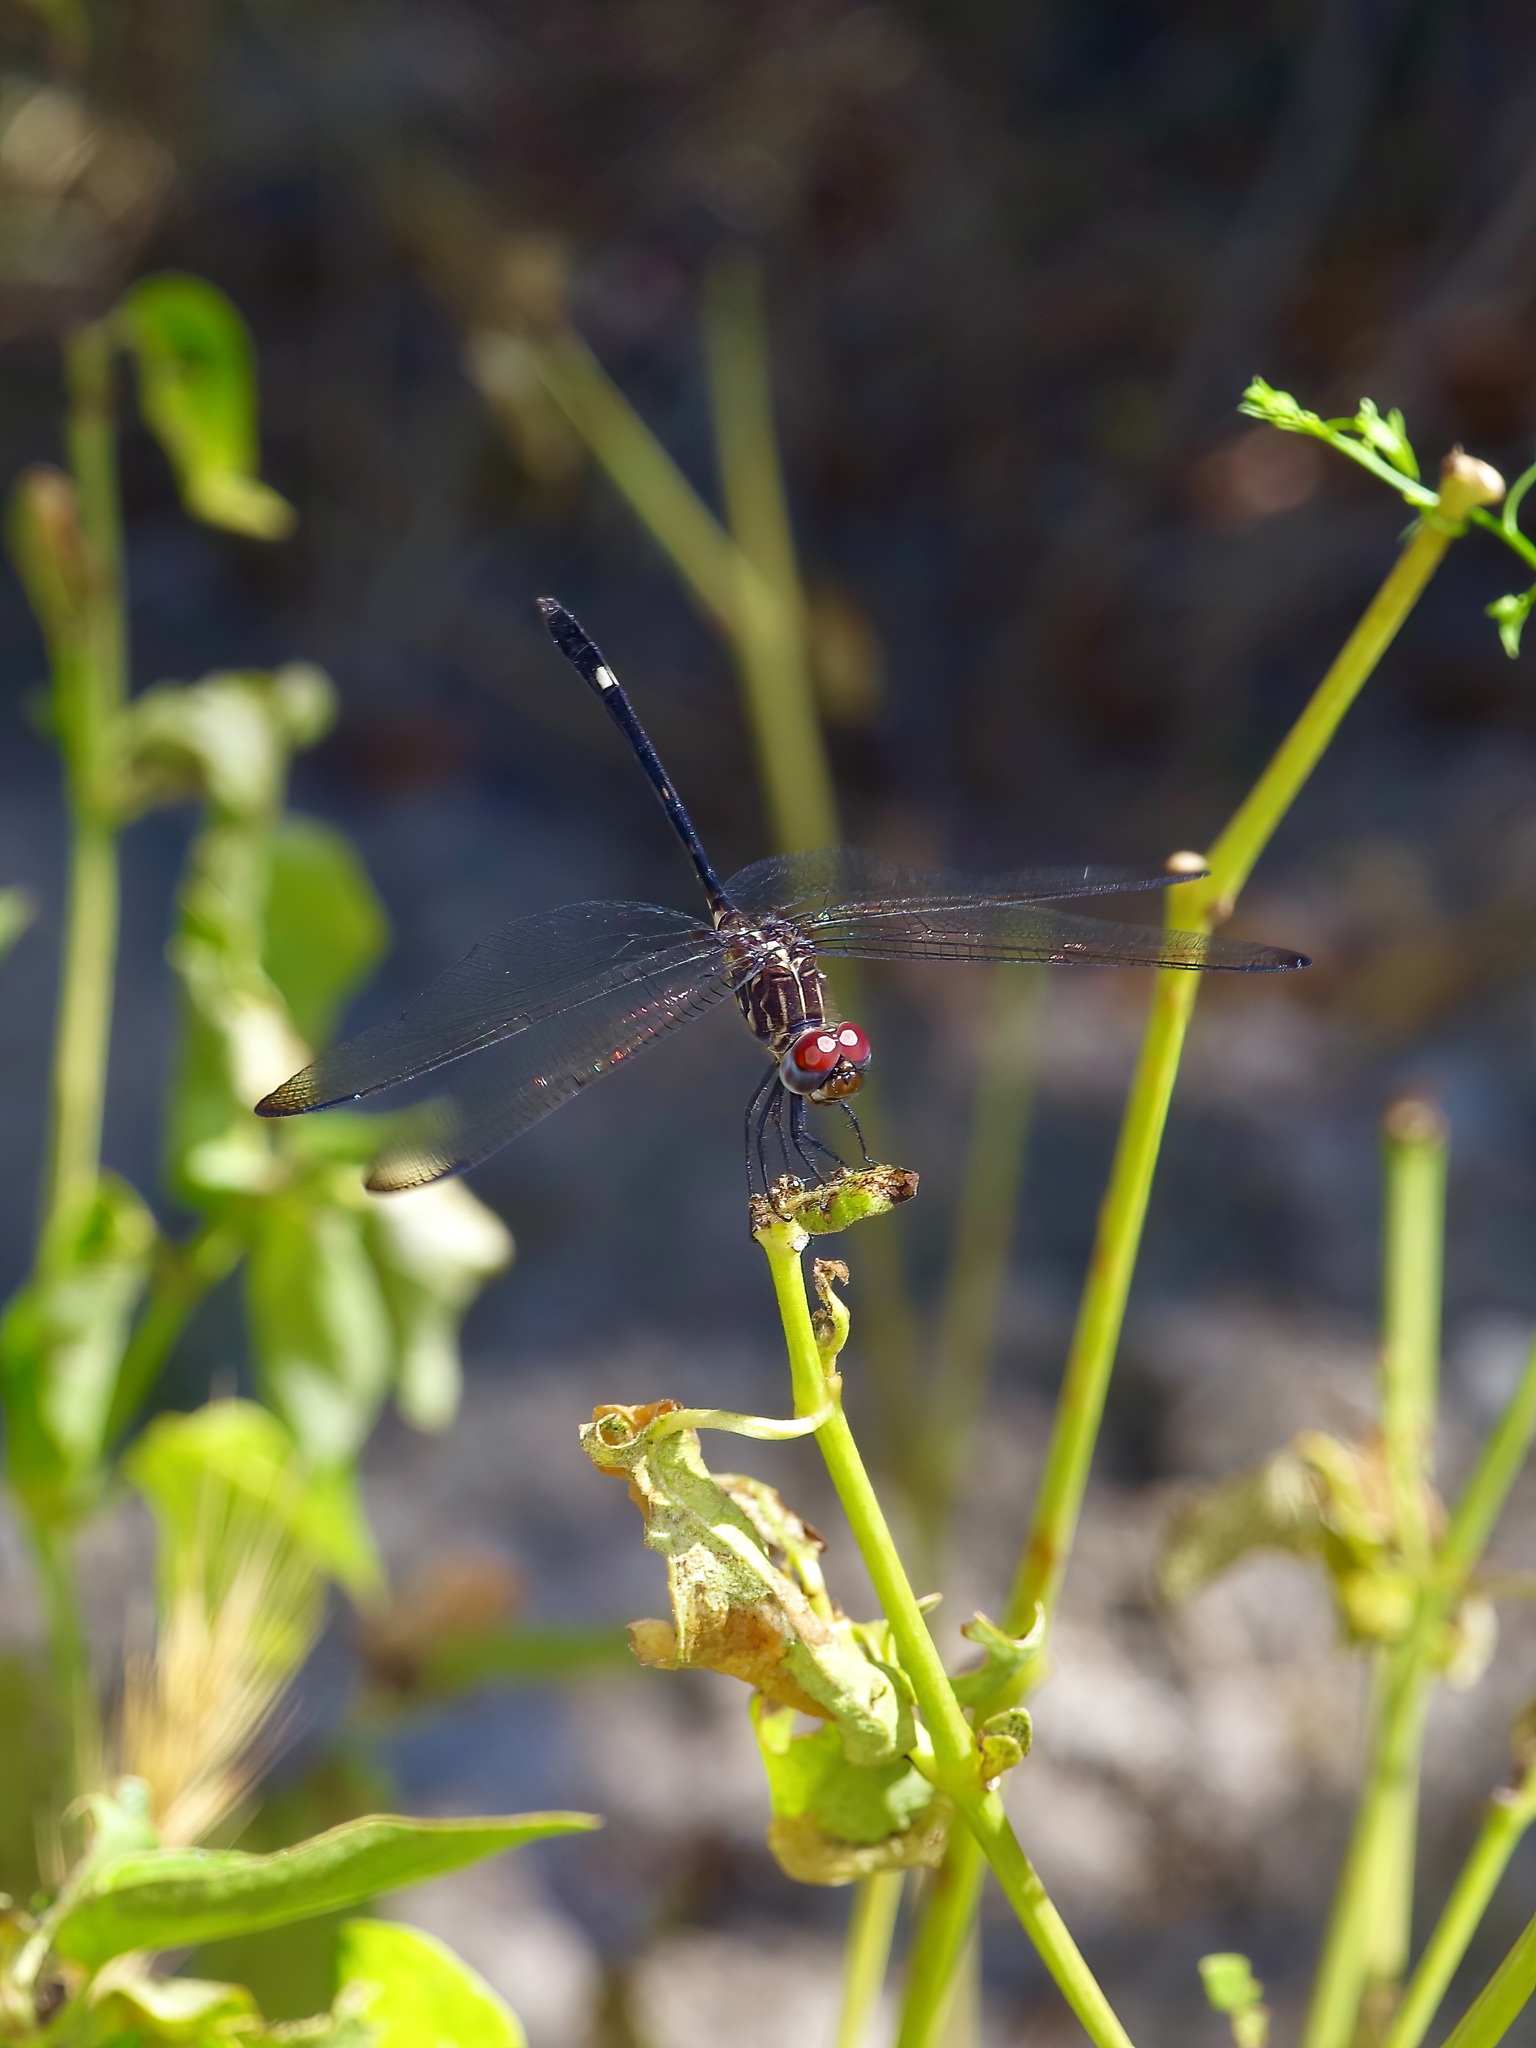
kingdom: Animalia
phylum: Arthropoda
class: Insecta
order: Odonata
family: Libellulidae
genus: Dythemis
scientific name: Dythemis velox
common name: Swift setwing
